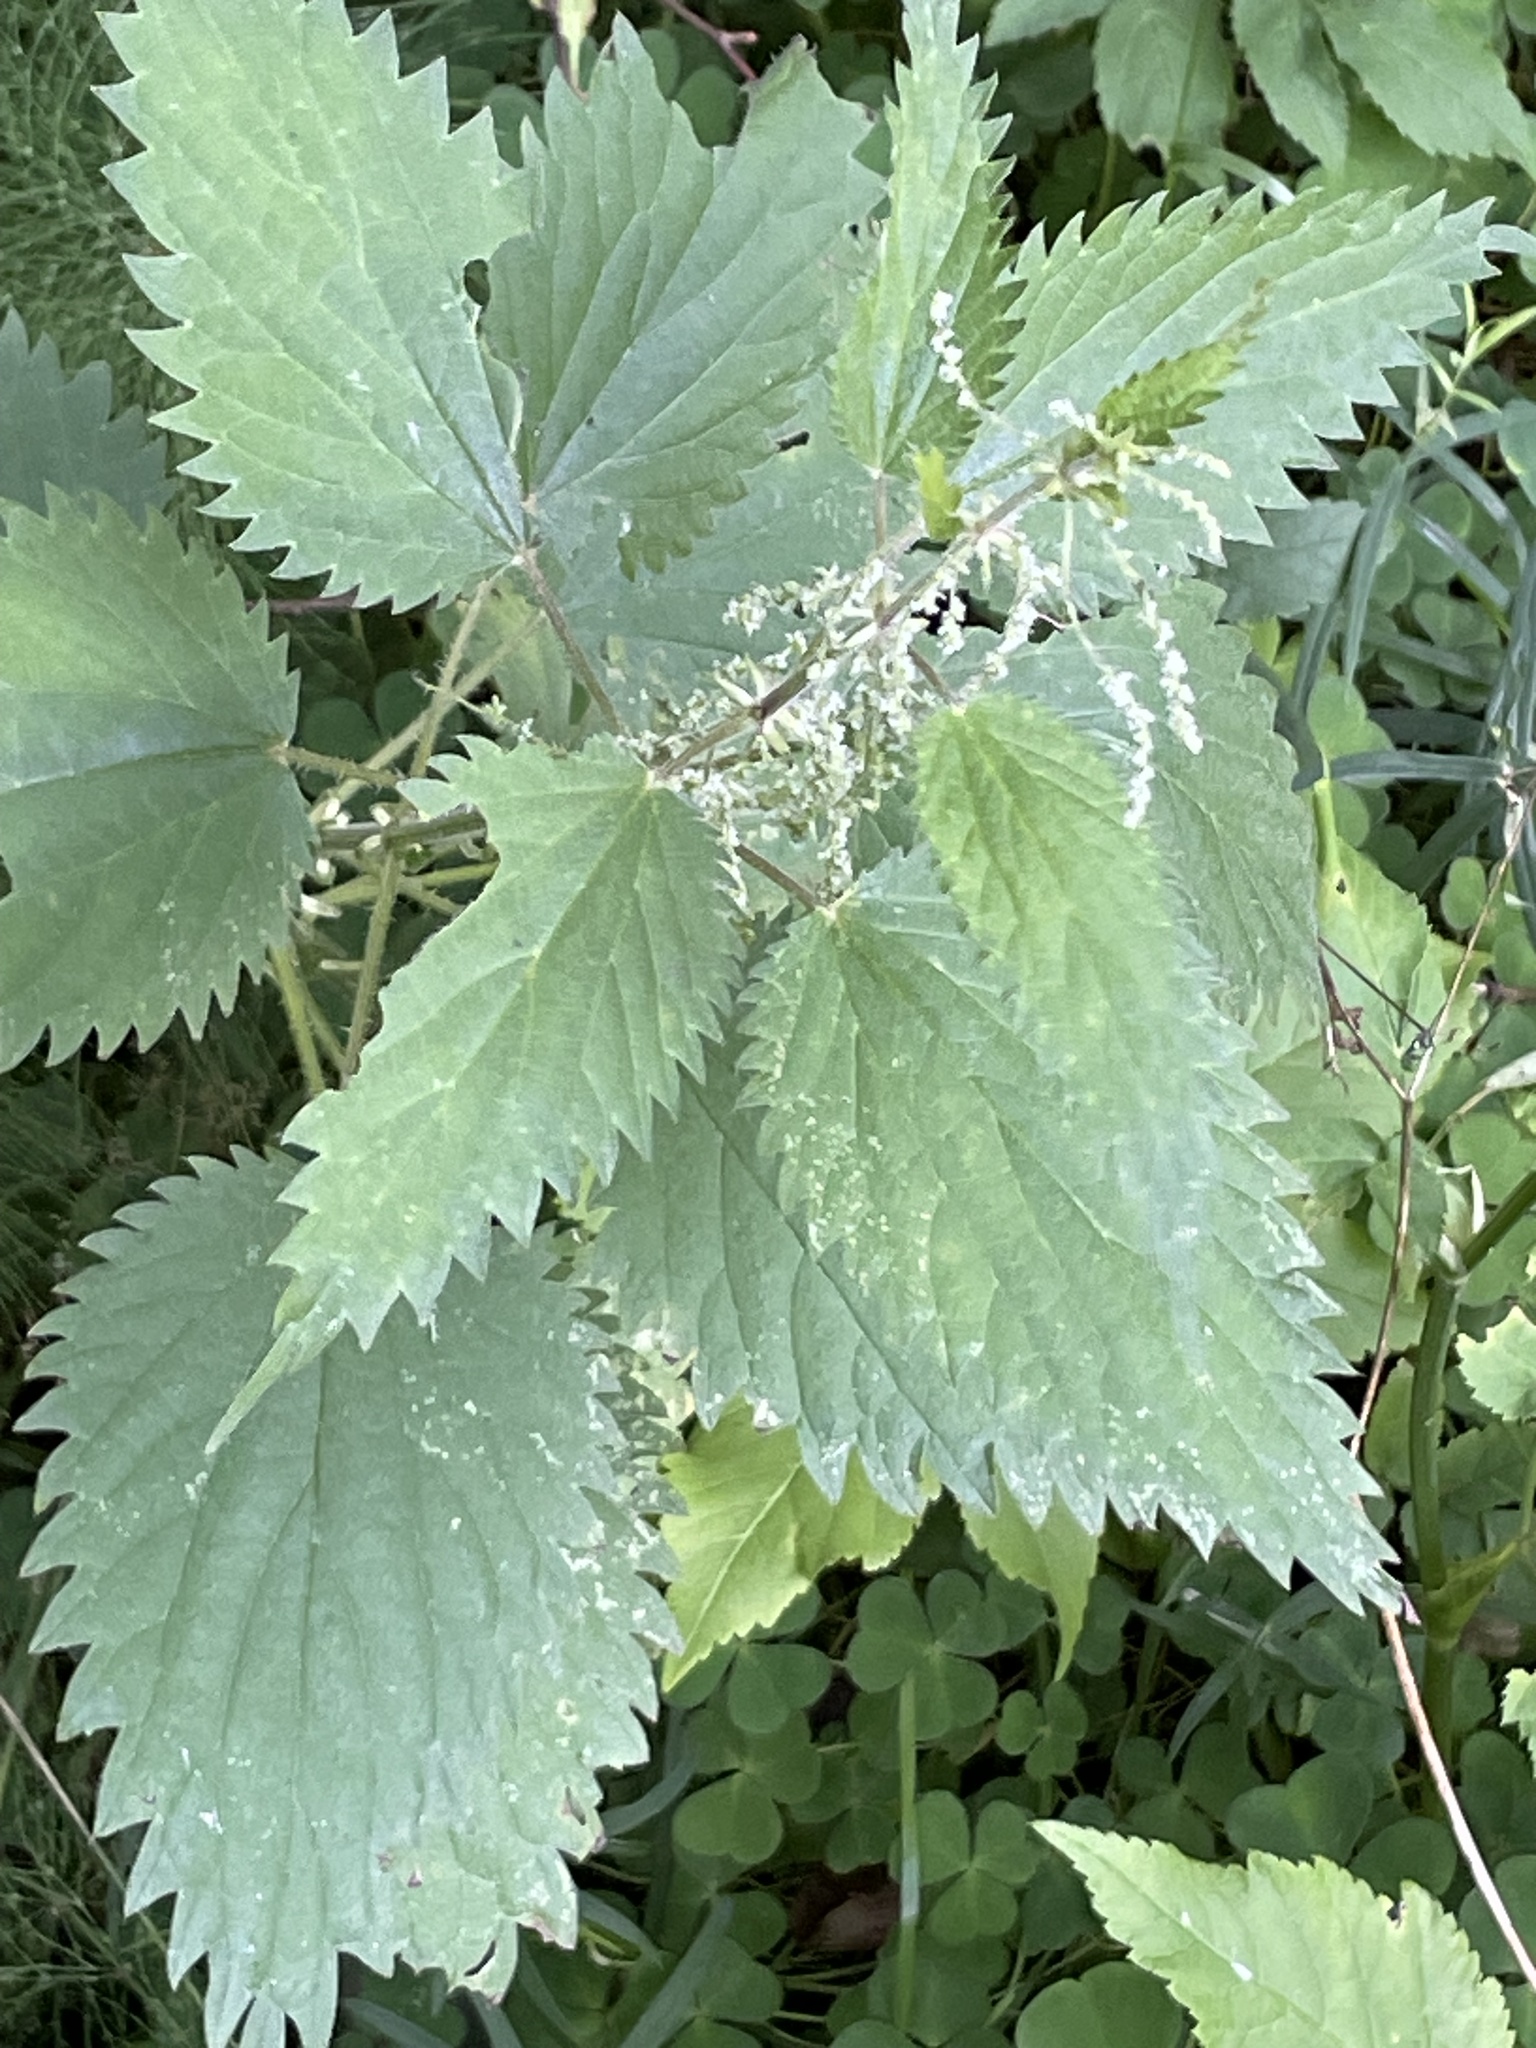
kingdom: Plantae
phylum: Tracheophyta
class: Magnoliopsida
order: Rosales
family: Urticaceae
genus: Urtica
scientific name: Urtica dioica
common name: Common nettle
